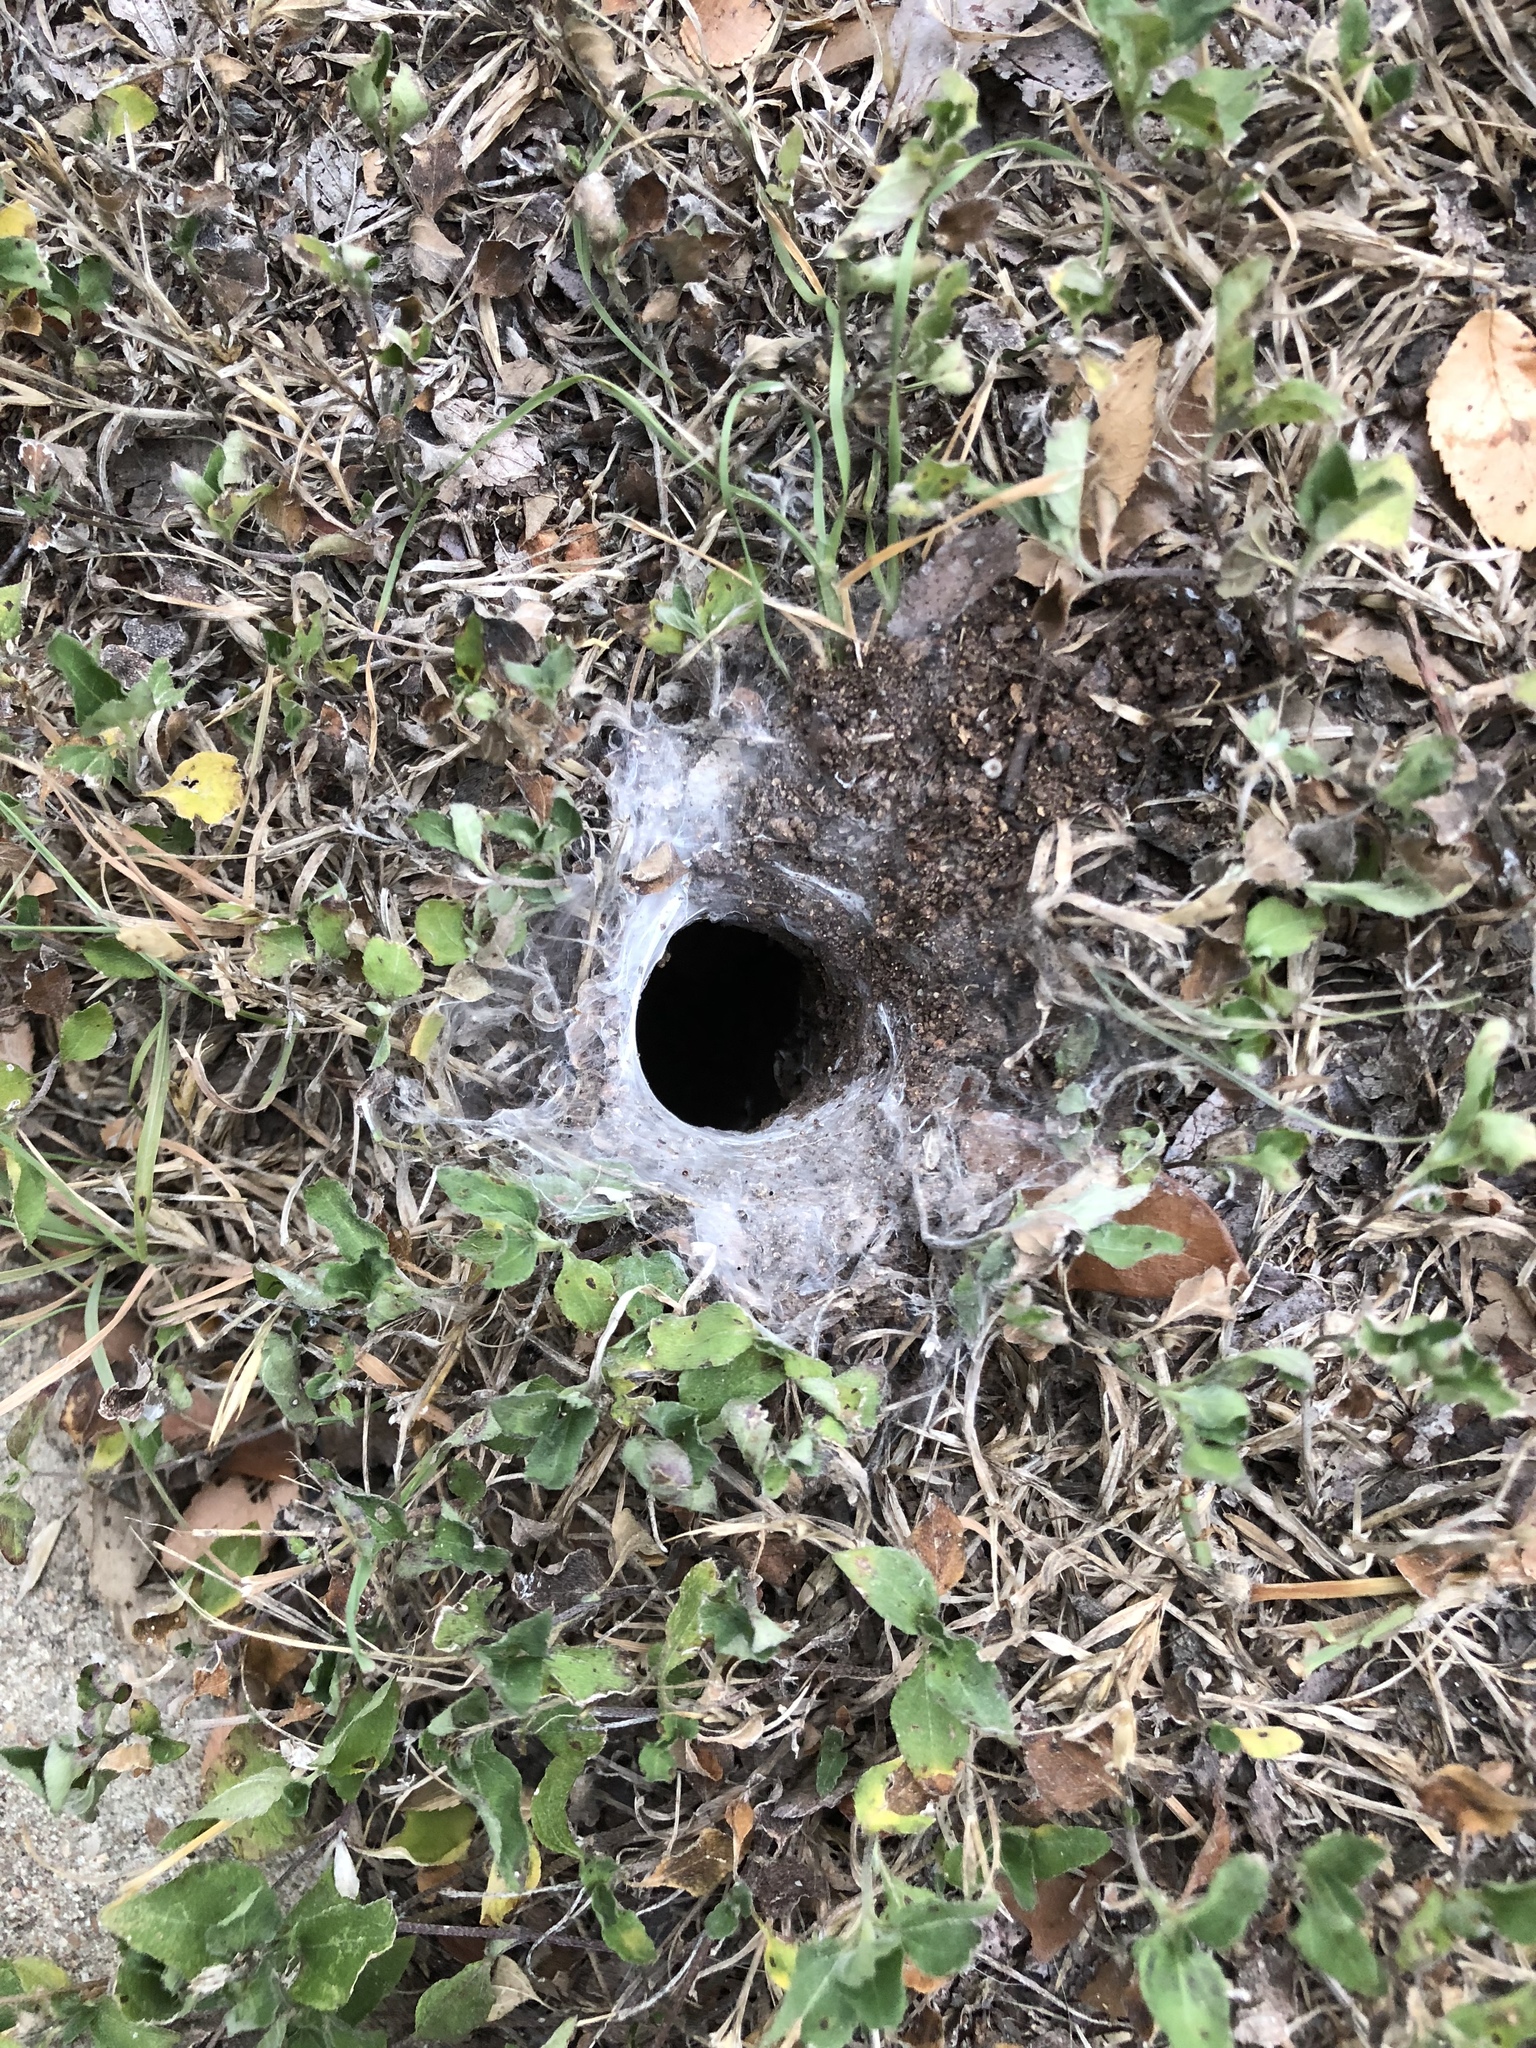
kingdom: Animalia
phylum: Arthropoda
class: Arachnida
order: Araneae
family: Theraphosidae
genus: Aphonopelma
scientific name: Aphonopelma hentzi
